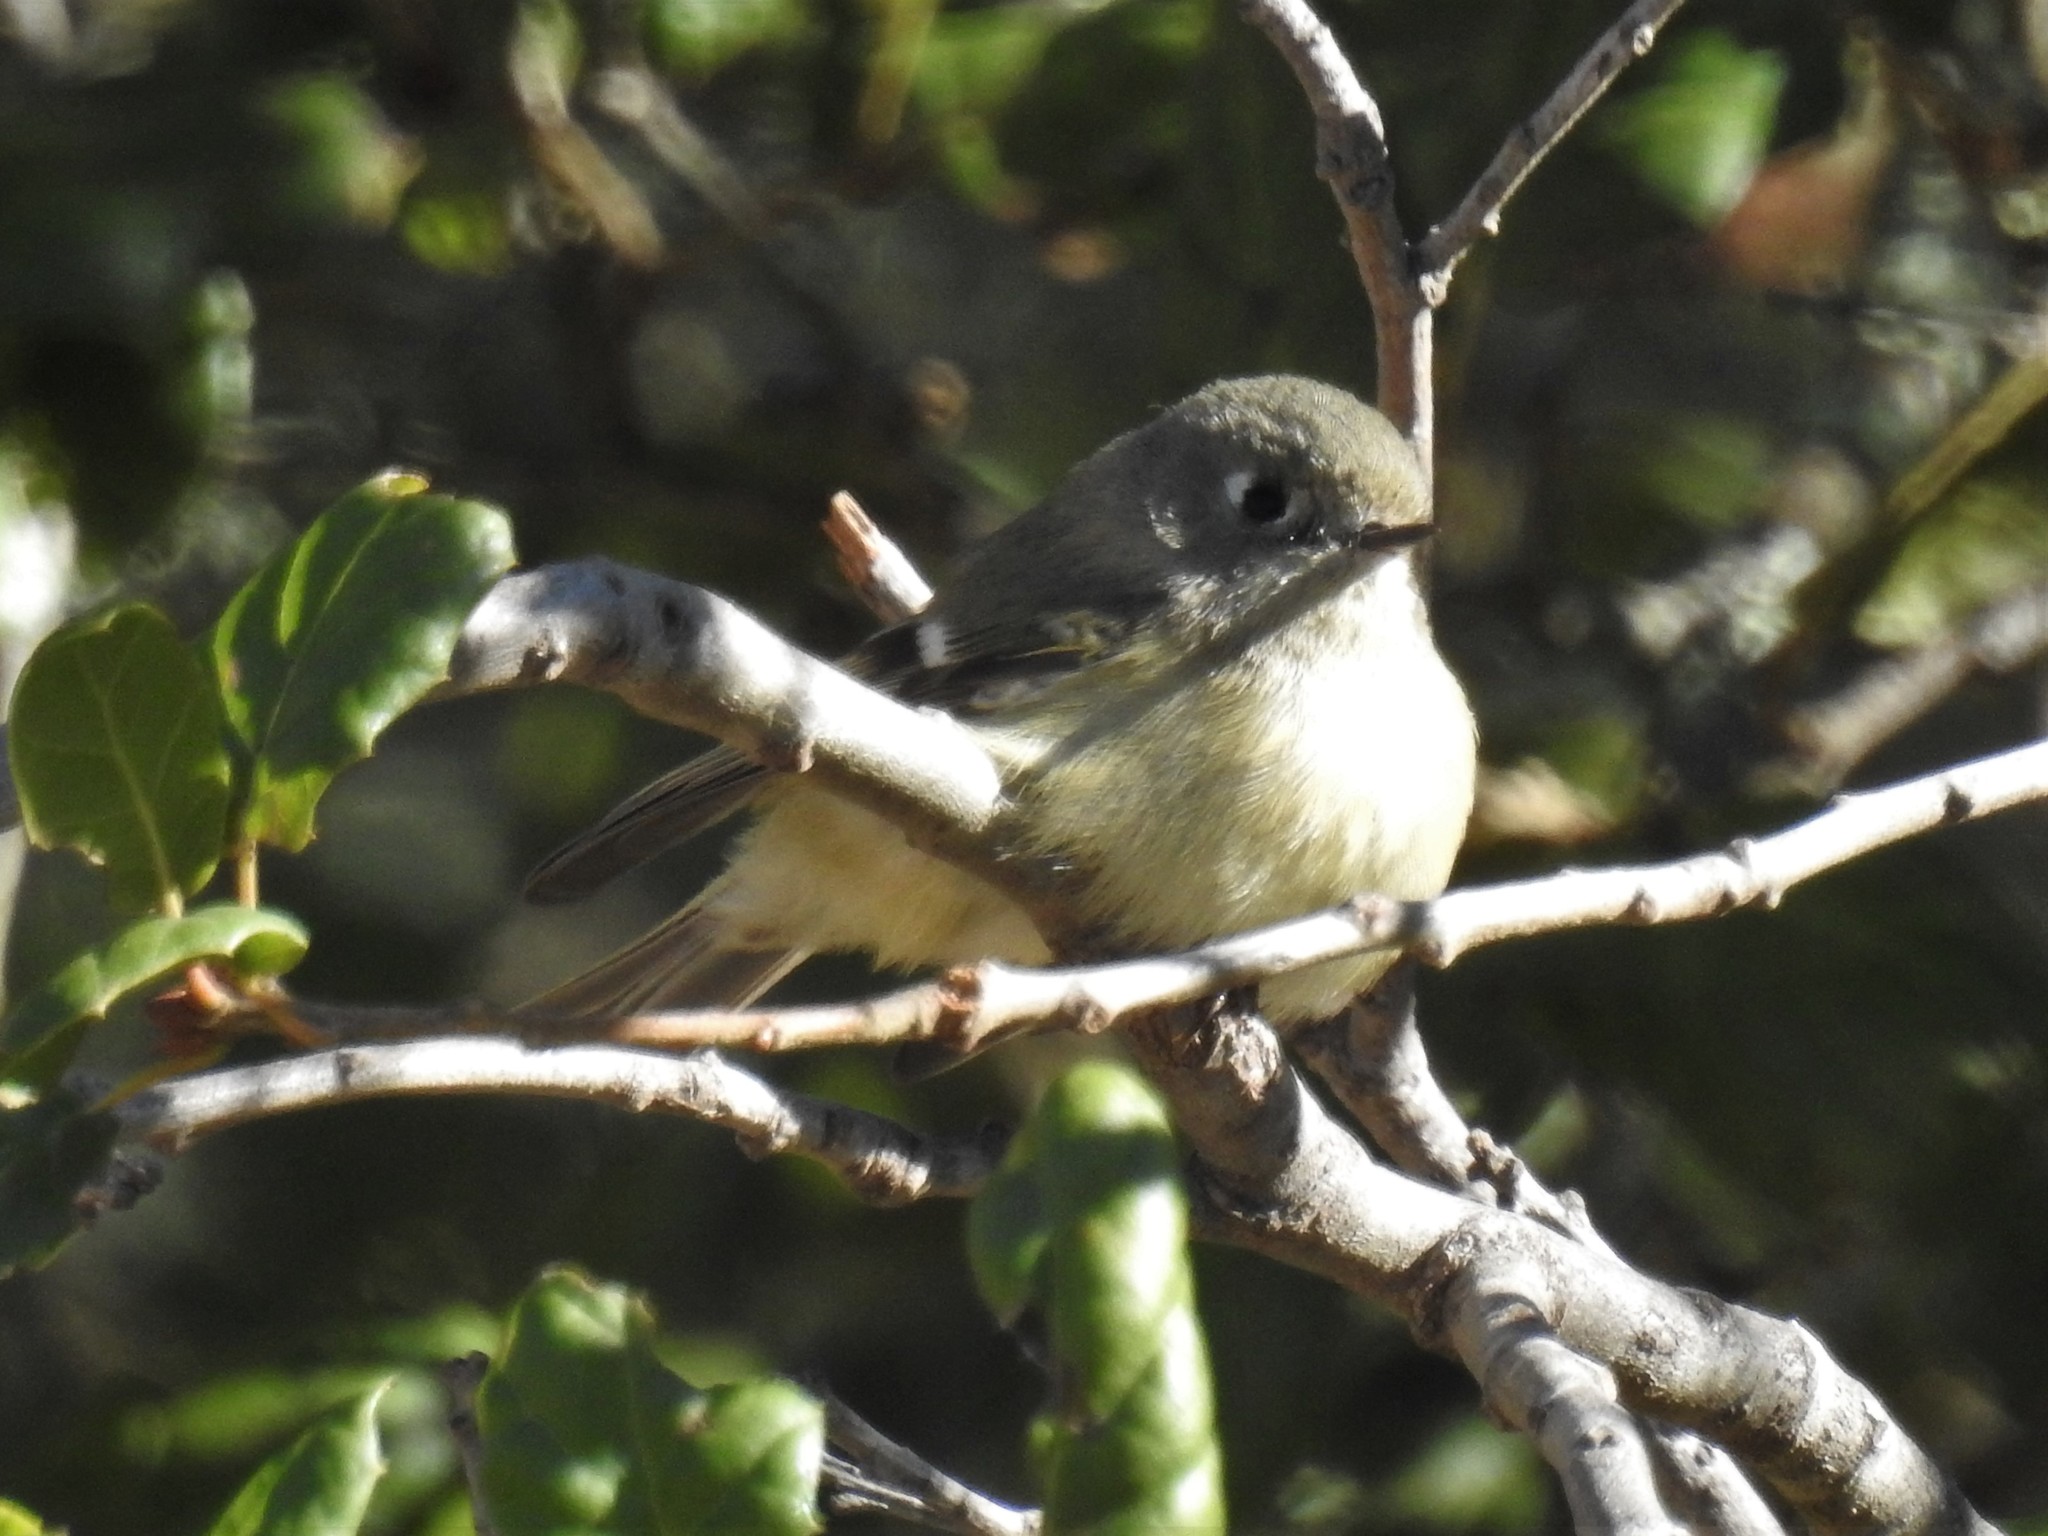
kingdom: Animalia
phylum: Chordata
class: Aves
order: Passeriformes
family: Regulidae
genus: Regulus
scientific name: Regulus calendula
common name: Ruby-crowned kinglet
